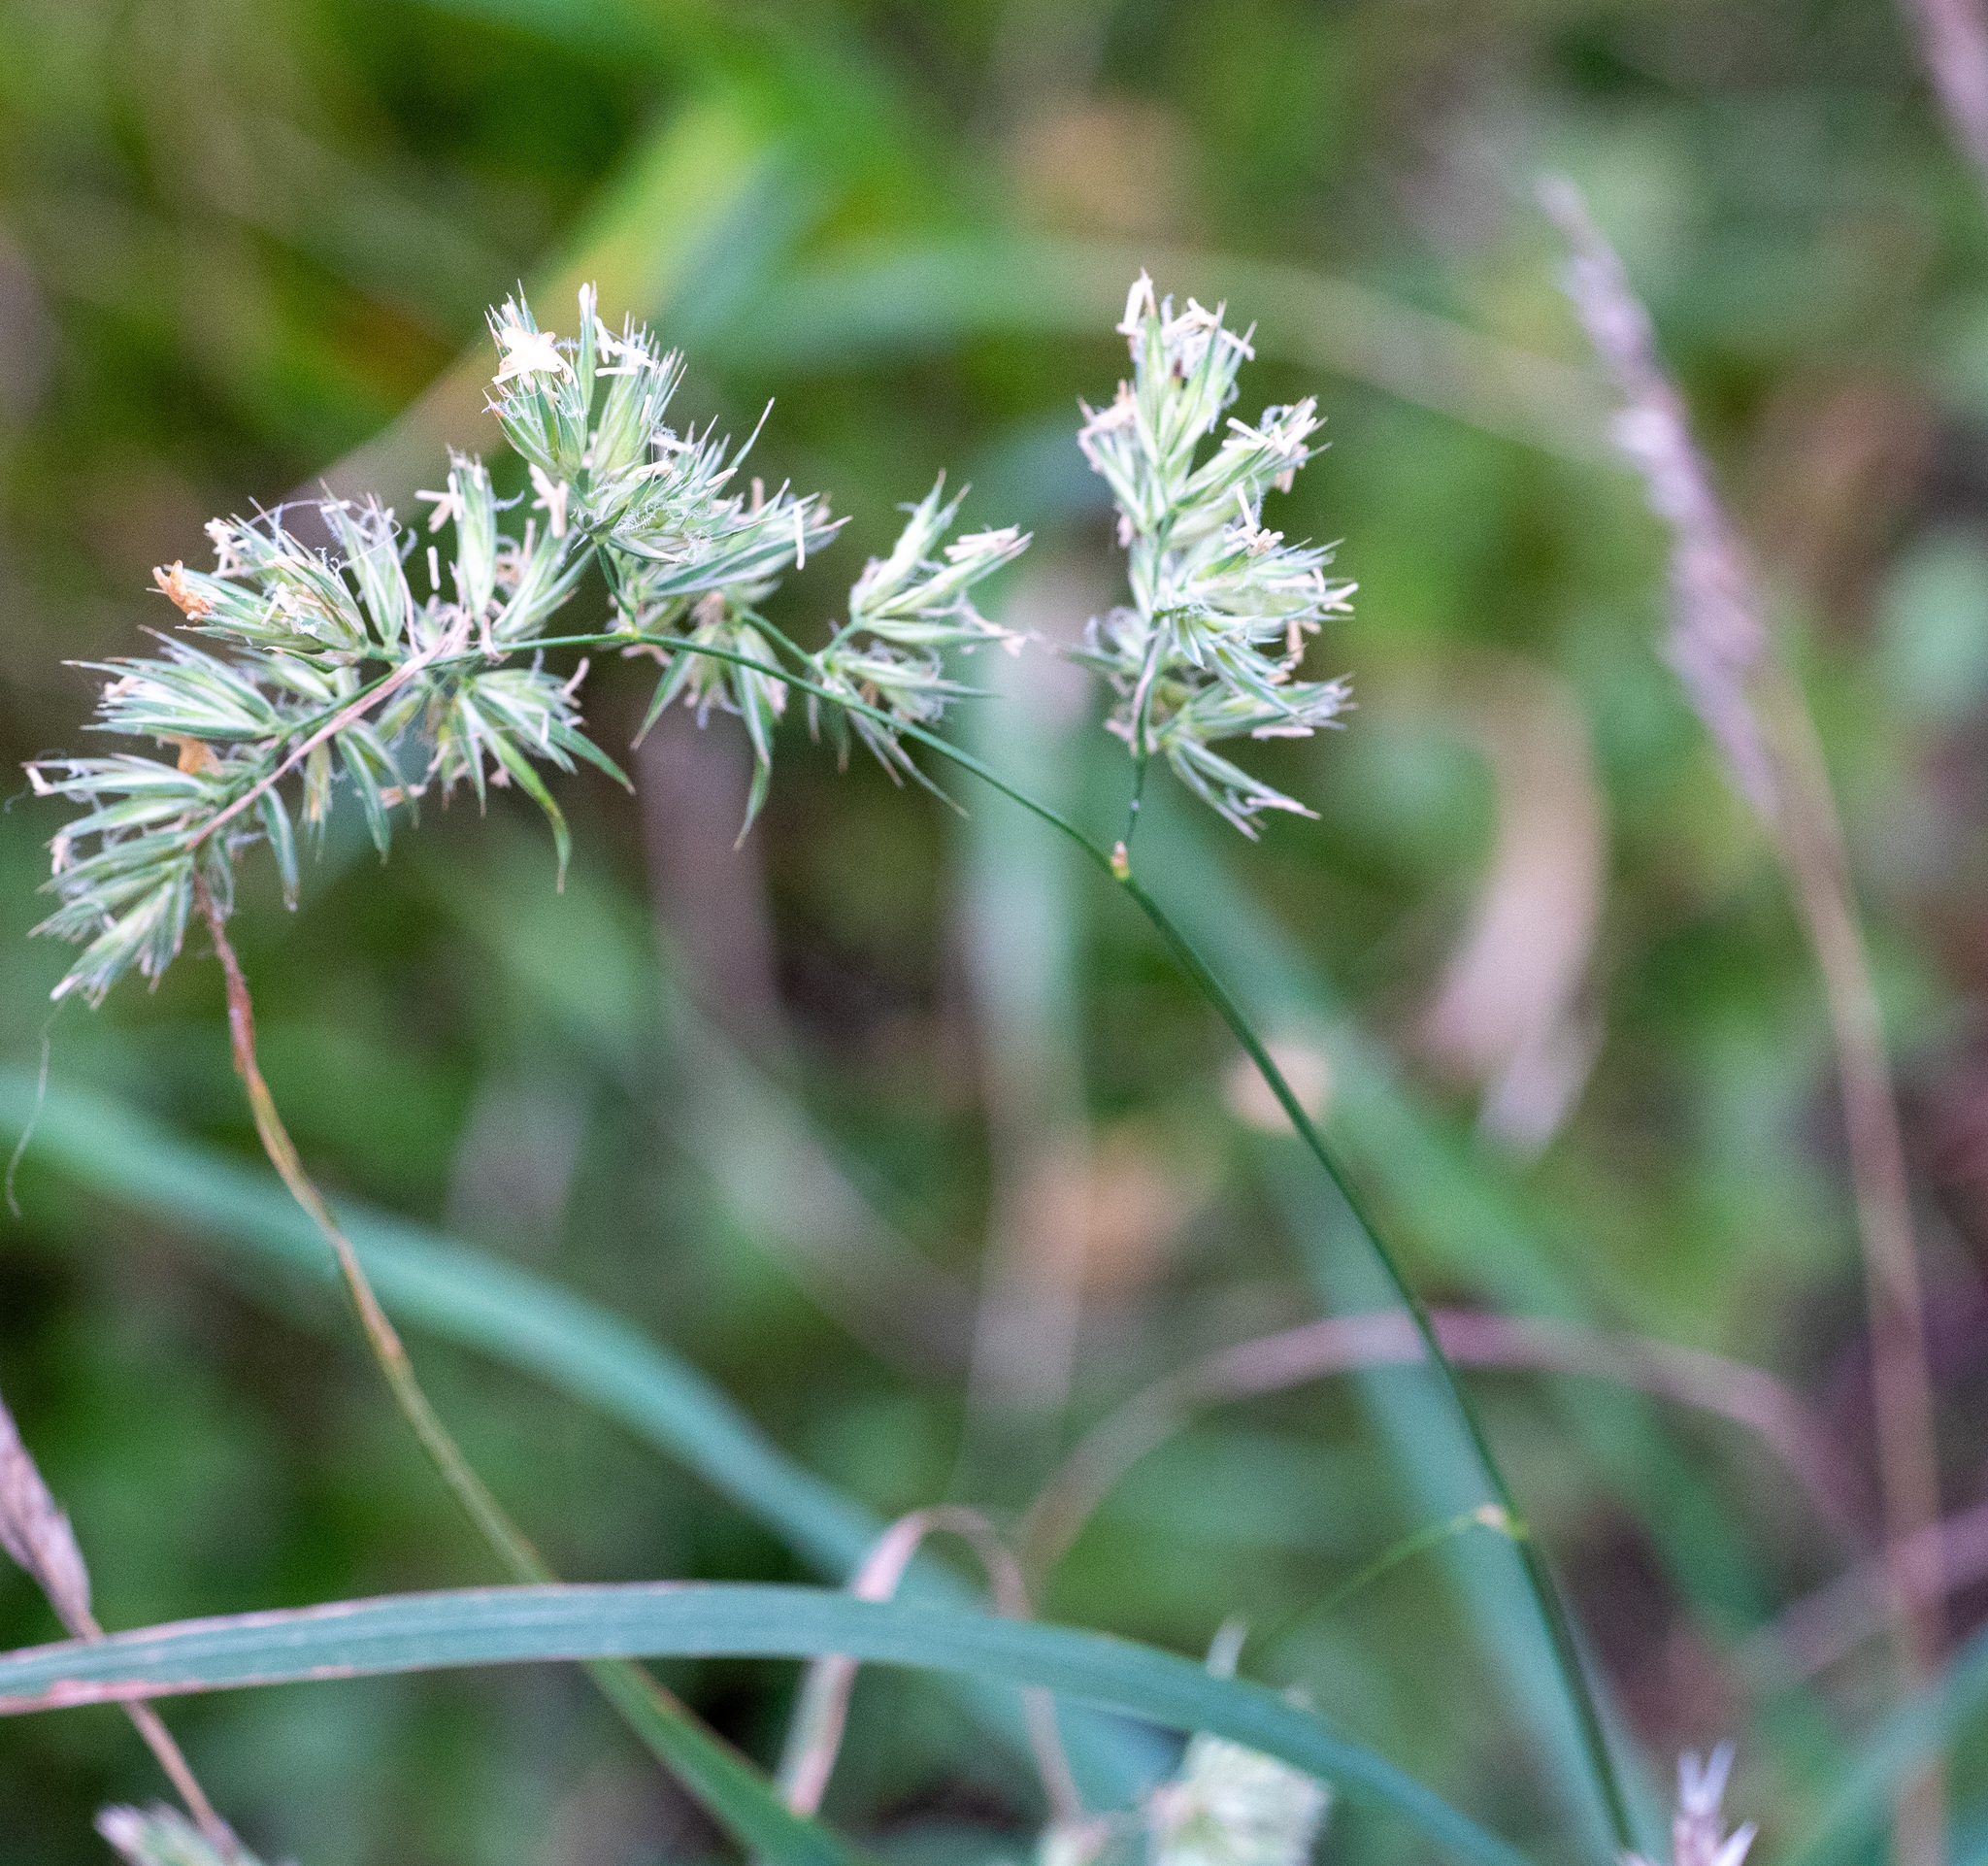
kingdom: Plantae
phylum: Tracheophyta
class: Liliopsida
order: Poales
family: Poaceae
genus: Dactylis
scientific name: Dactylis glomerata
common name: Orchardgrass
